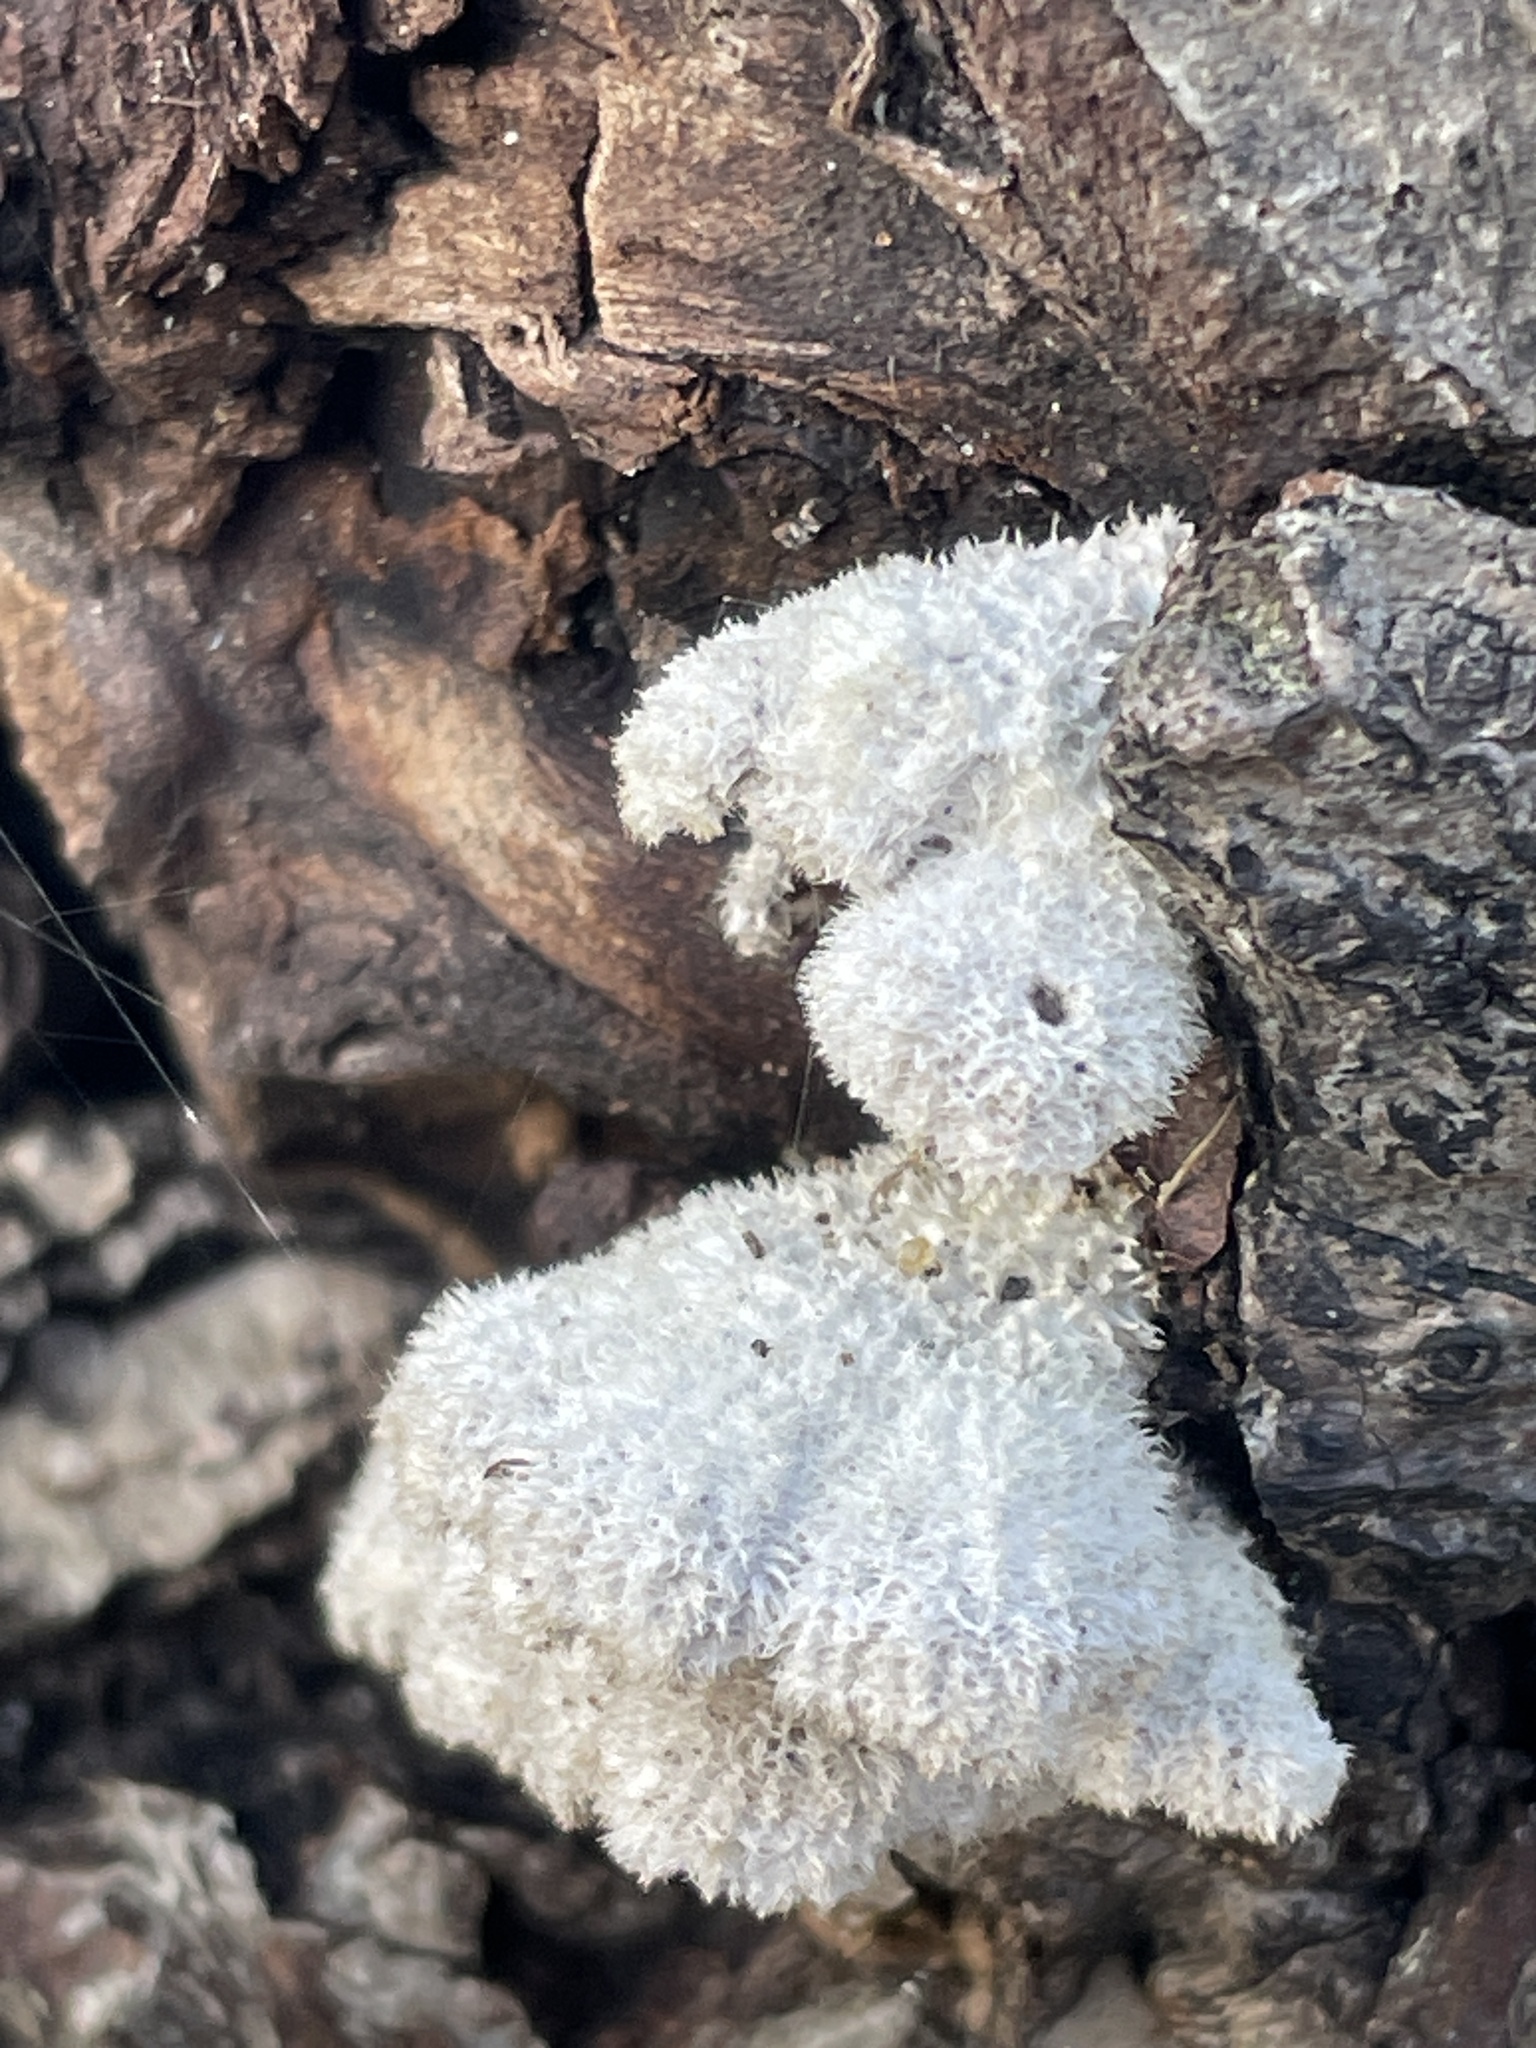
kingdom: Fungi
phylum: Basidiomycota
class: Agaricomycetes
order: Agaricales
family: Schizophyllaceae
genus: Schizophyllum
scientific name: Schizophyllum commune
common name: Common porecrust
